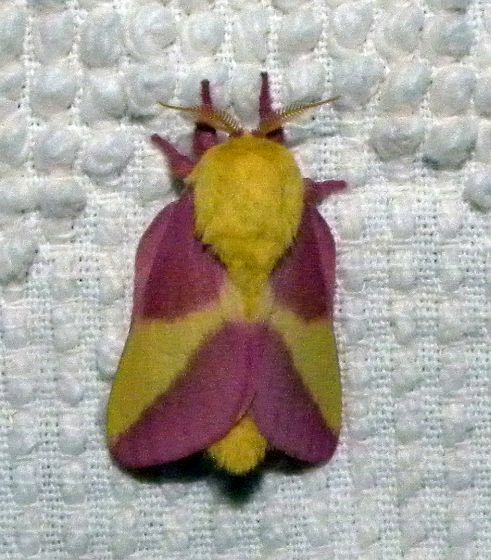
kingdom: Animalia
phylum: Arthropoda
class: Insecta
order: Lepidoptera
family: Saturniidae
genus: Dryocampa
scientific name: Dryocampa rubicunda
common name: Rosy maple moth
